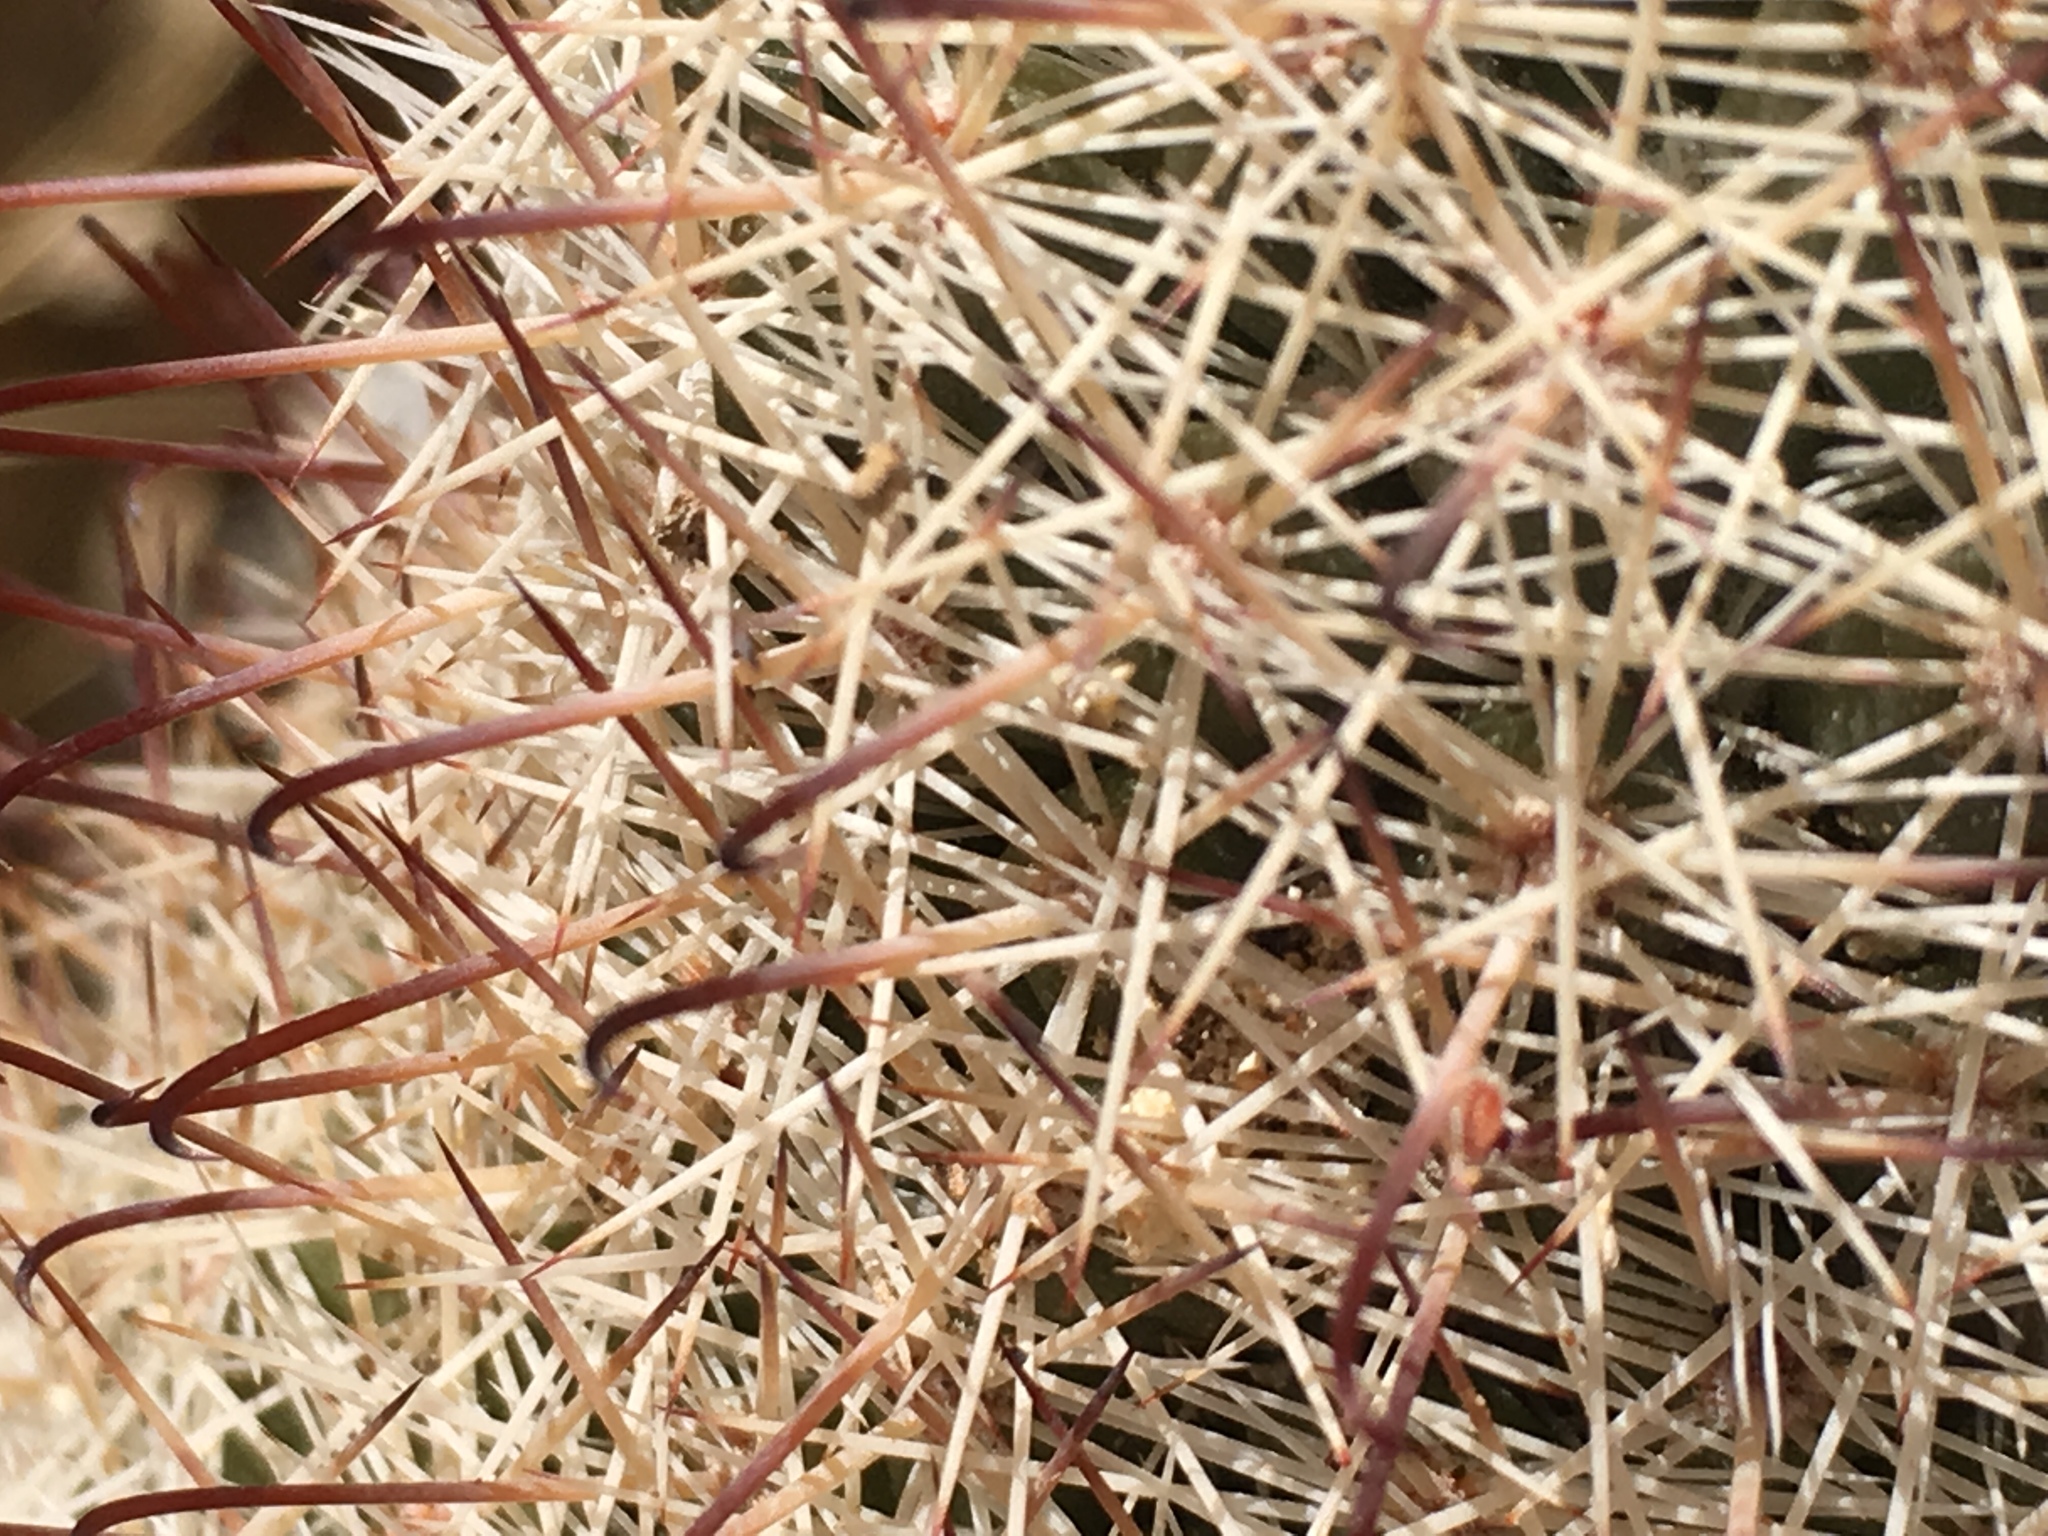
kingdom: Plantae
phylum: Tracheophyta
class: Magnoliopsida
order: Caryophyllales
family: Cactaceae
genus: Cochemiea
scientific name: Cochemiea dioica
